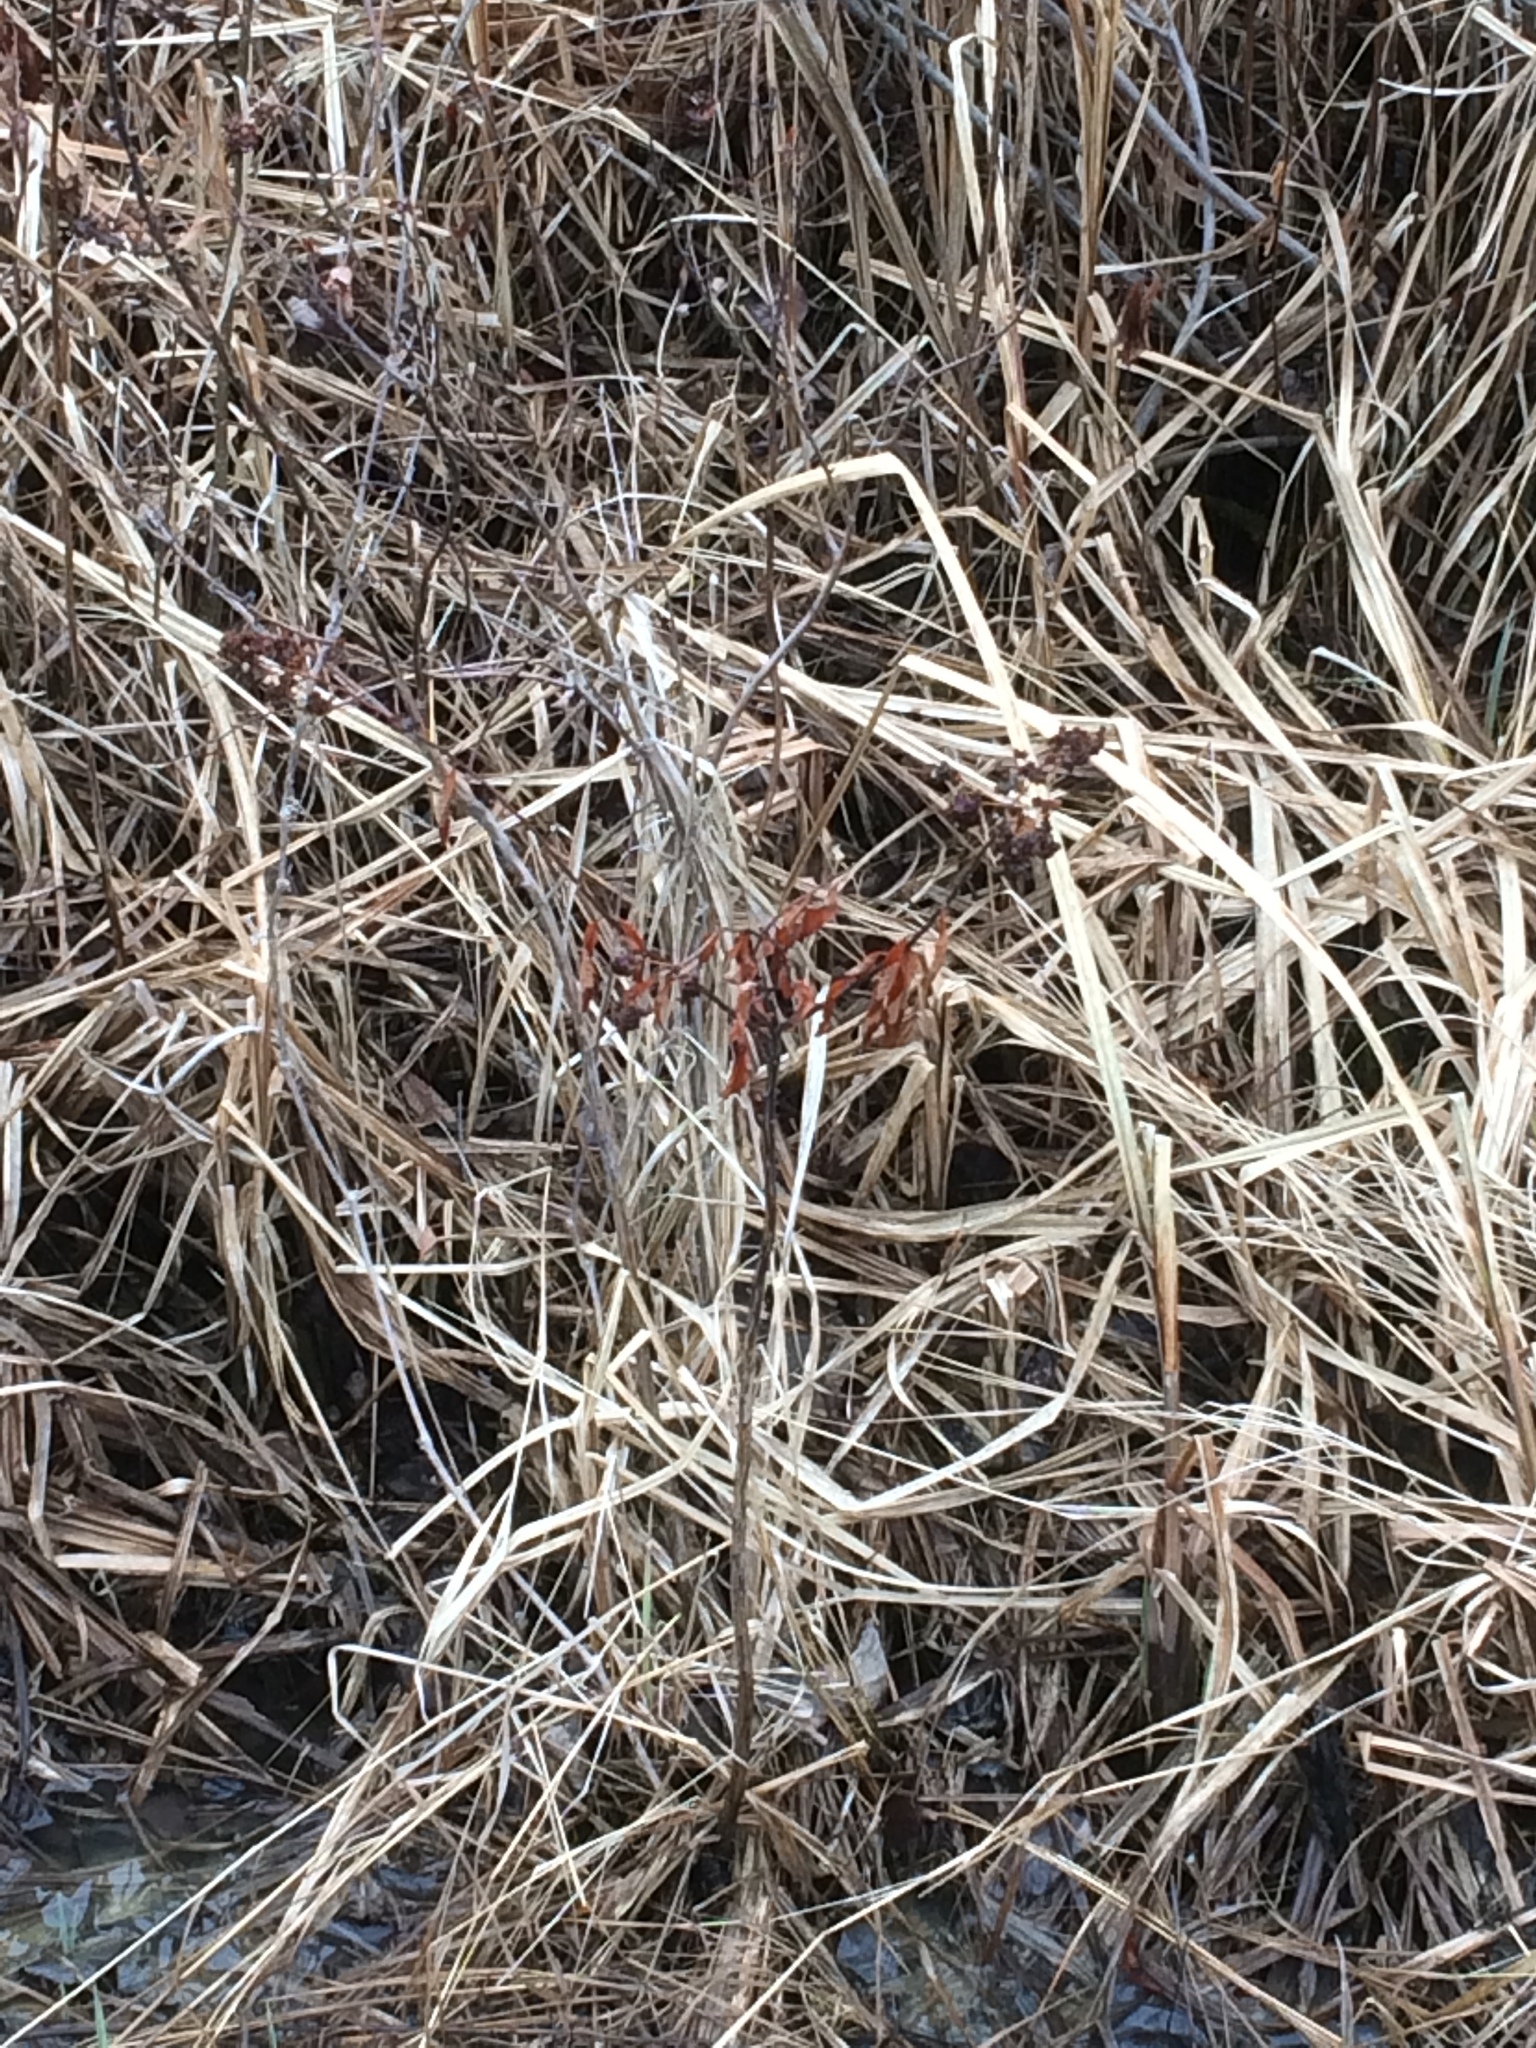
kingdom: Plantae
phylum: Tracheophyta
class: Magnoliopsida
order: Rosales
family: Rosaceae
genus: Spiraea
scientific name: Spiraea alba
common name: Pale bridewort
